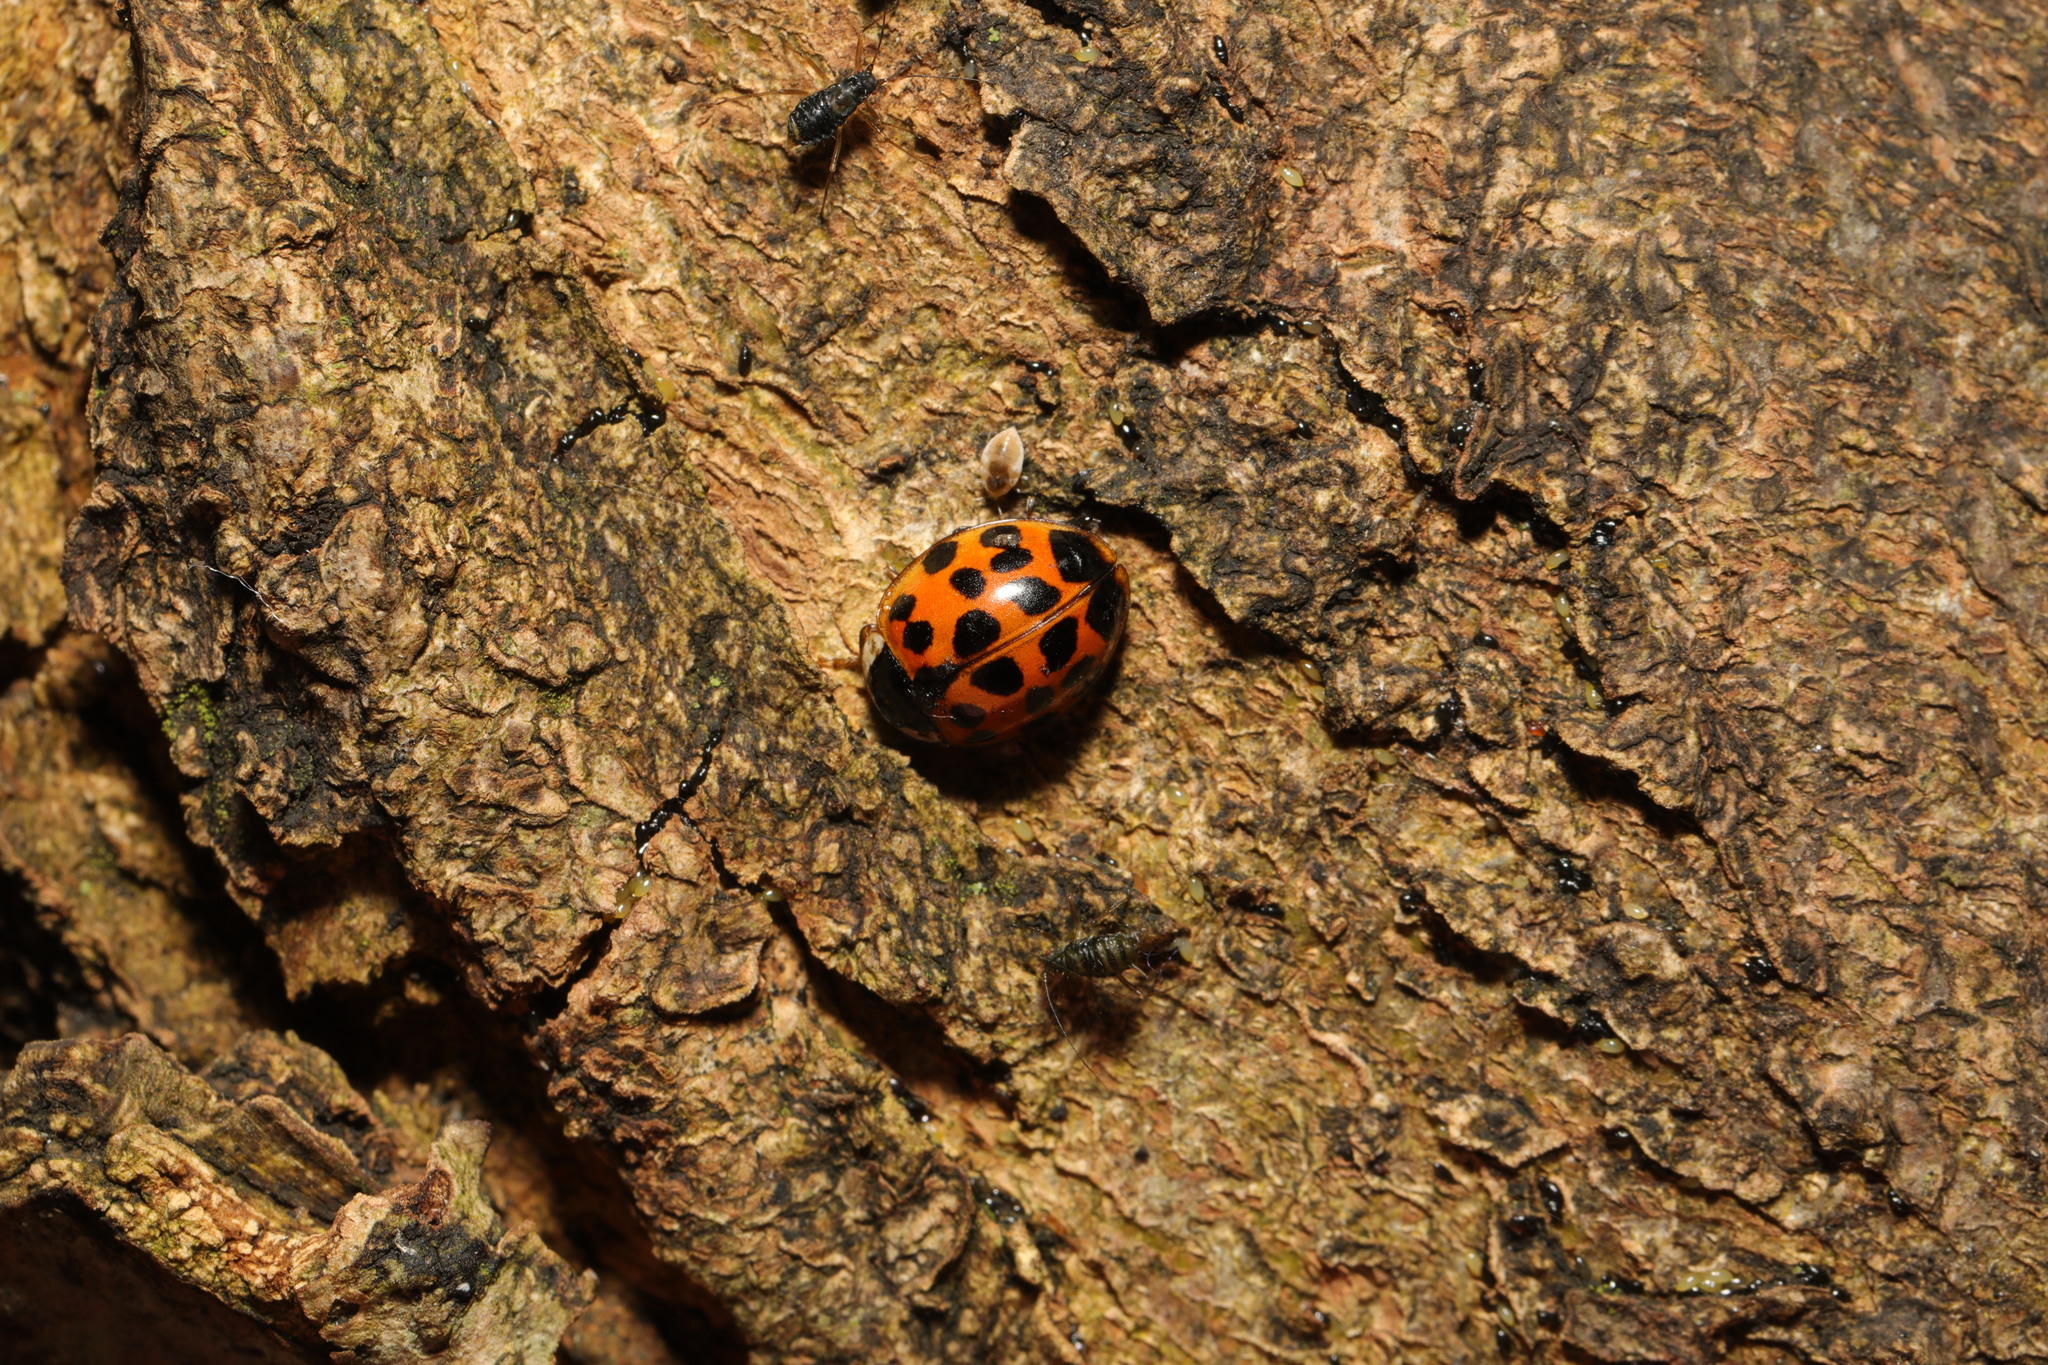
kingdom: Animalia
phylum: Arthropoda
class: Insecta
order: Coleoptera
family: Coccinellidae
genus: Harmonia
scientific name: Harmonia axyridis
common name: Harlequin ladybird
